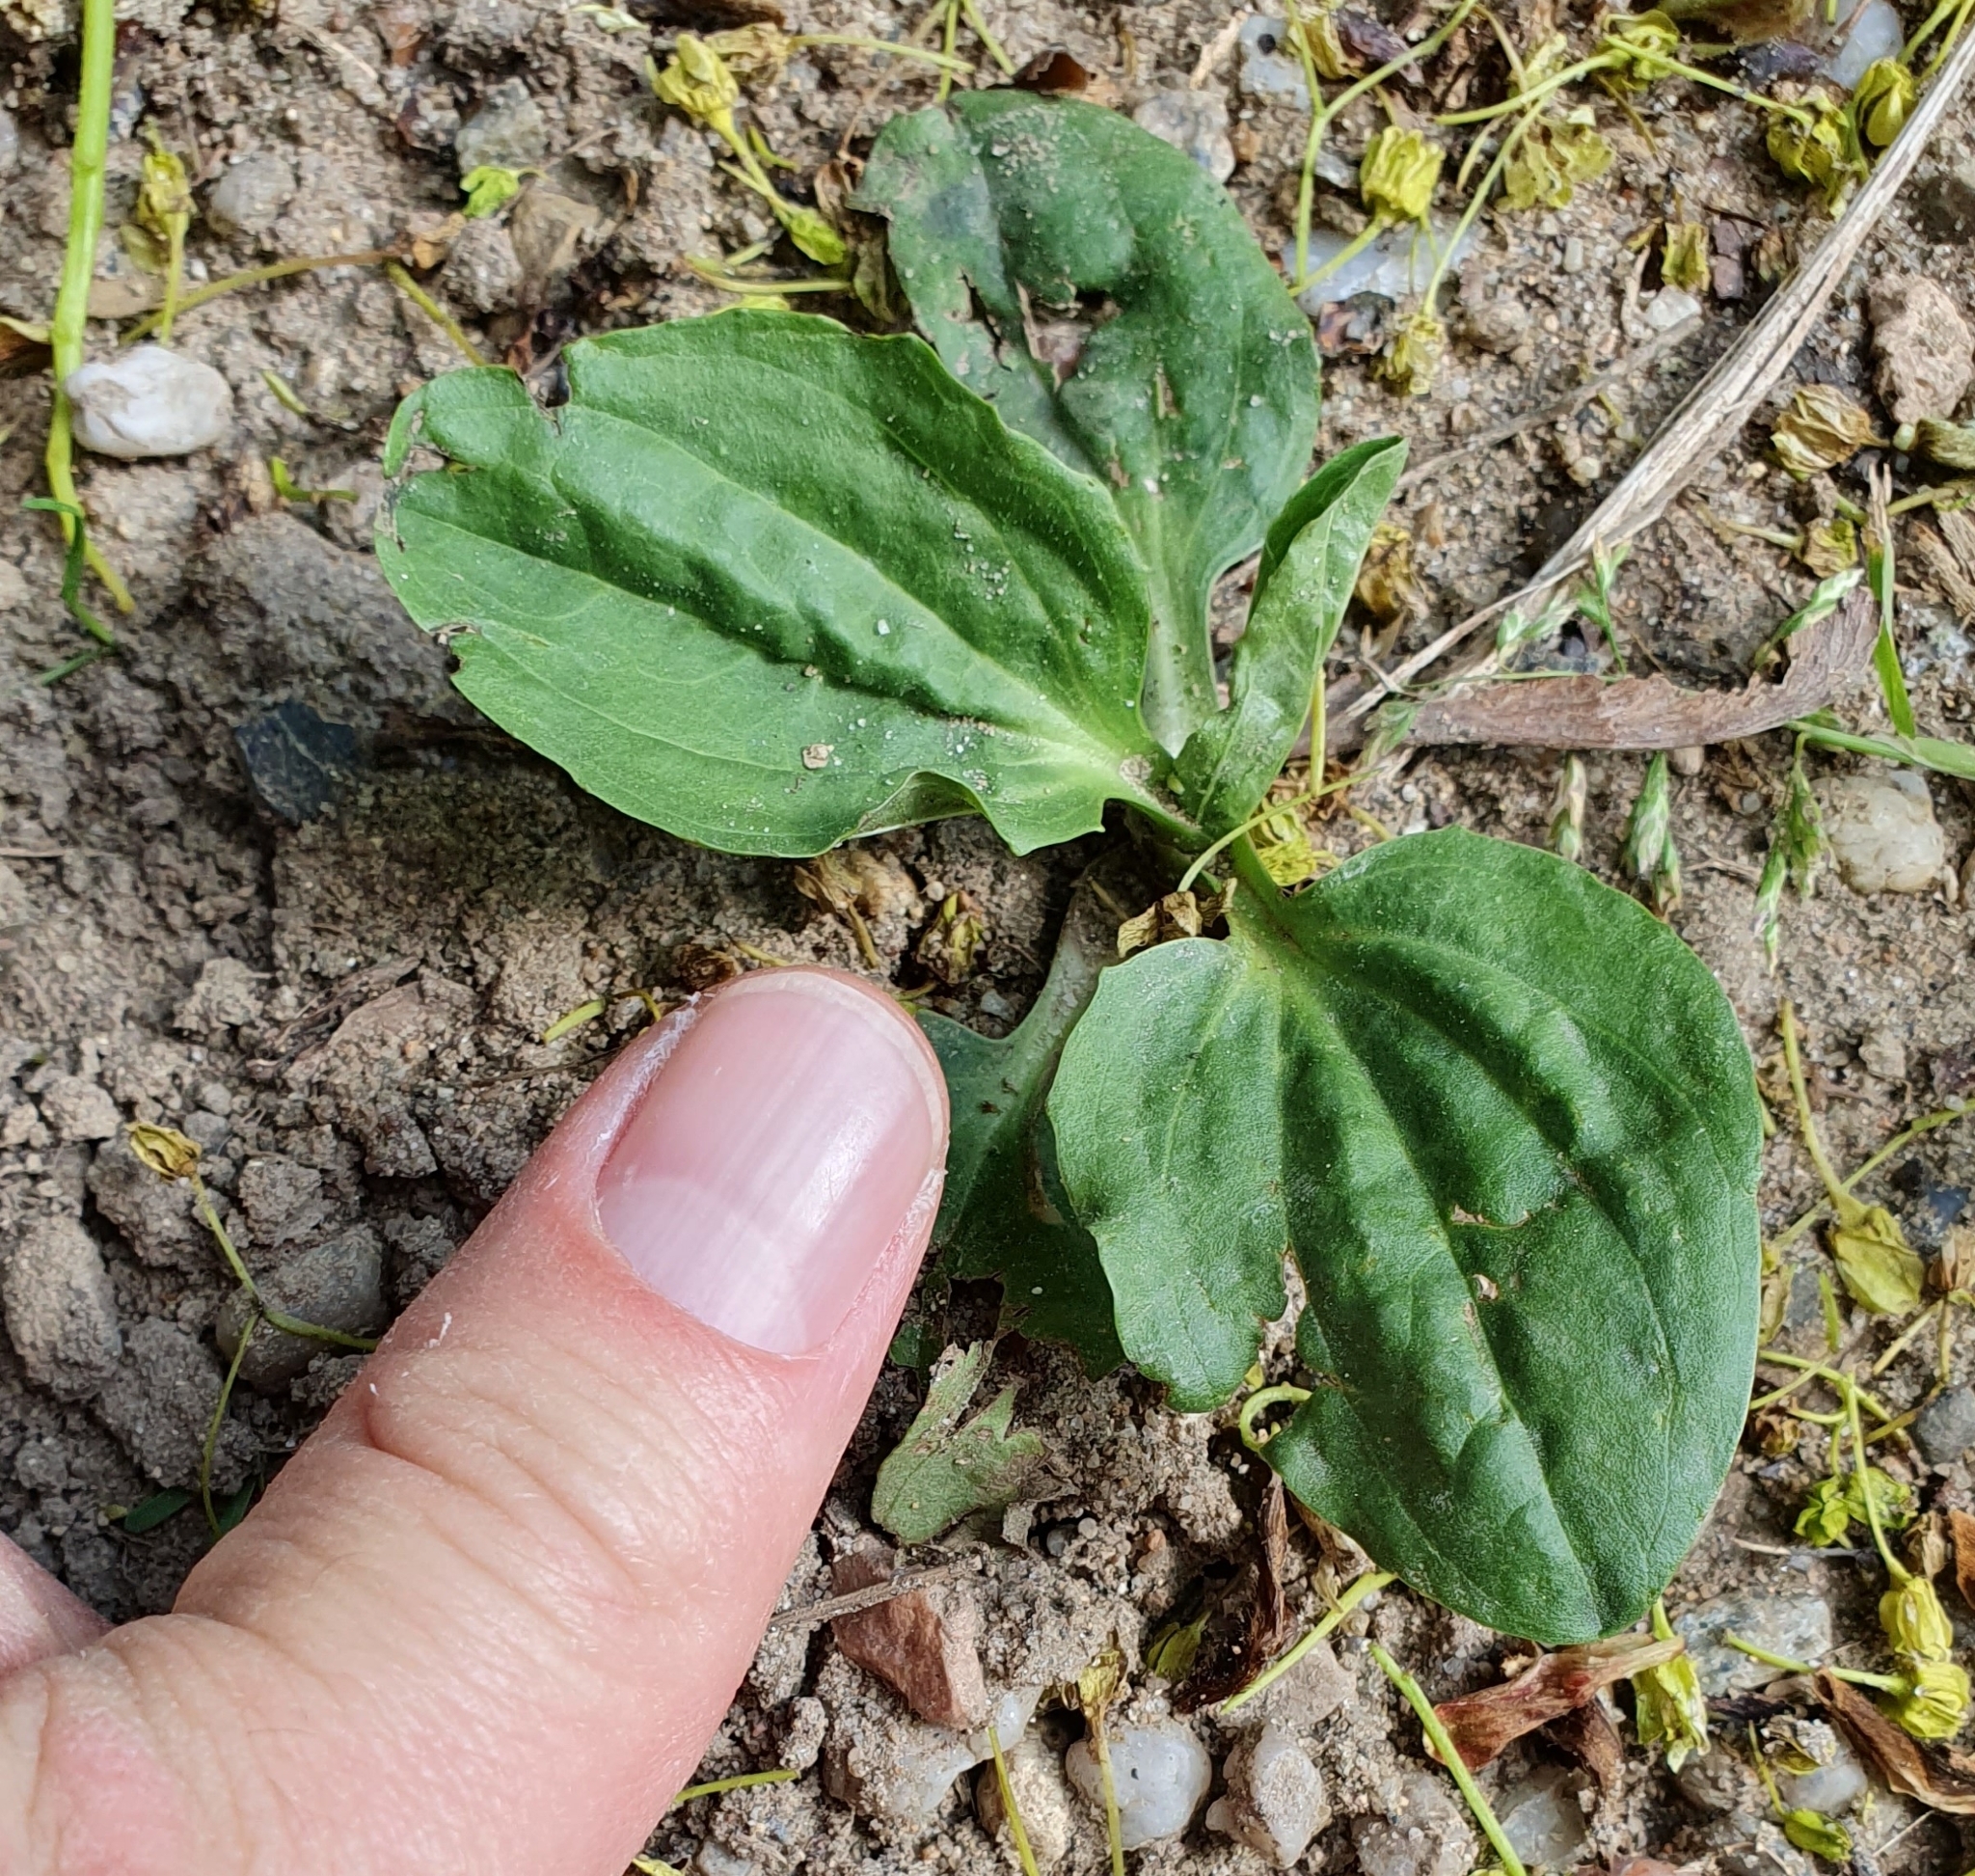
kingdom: Plantae
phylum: Tracheophyta
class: Magnoliopsida
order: Lamiales
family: Plantaginaceae
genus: Plantago
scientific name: Plantago major
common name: Common plantain
